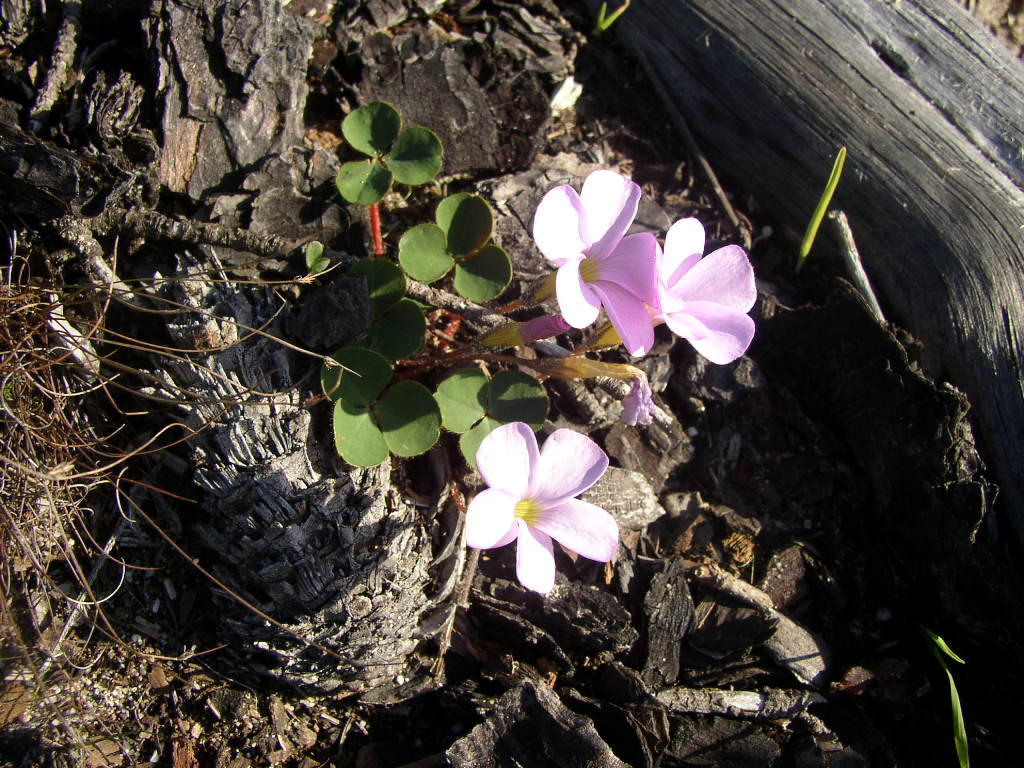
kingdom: Plantae
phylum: Tracheophyta
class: Magnoliopsida
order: Oxalidales
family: Oxalidaceae
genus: Oxalis
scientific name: Oxalis eckloniana
